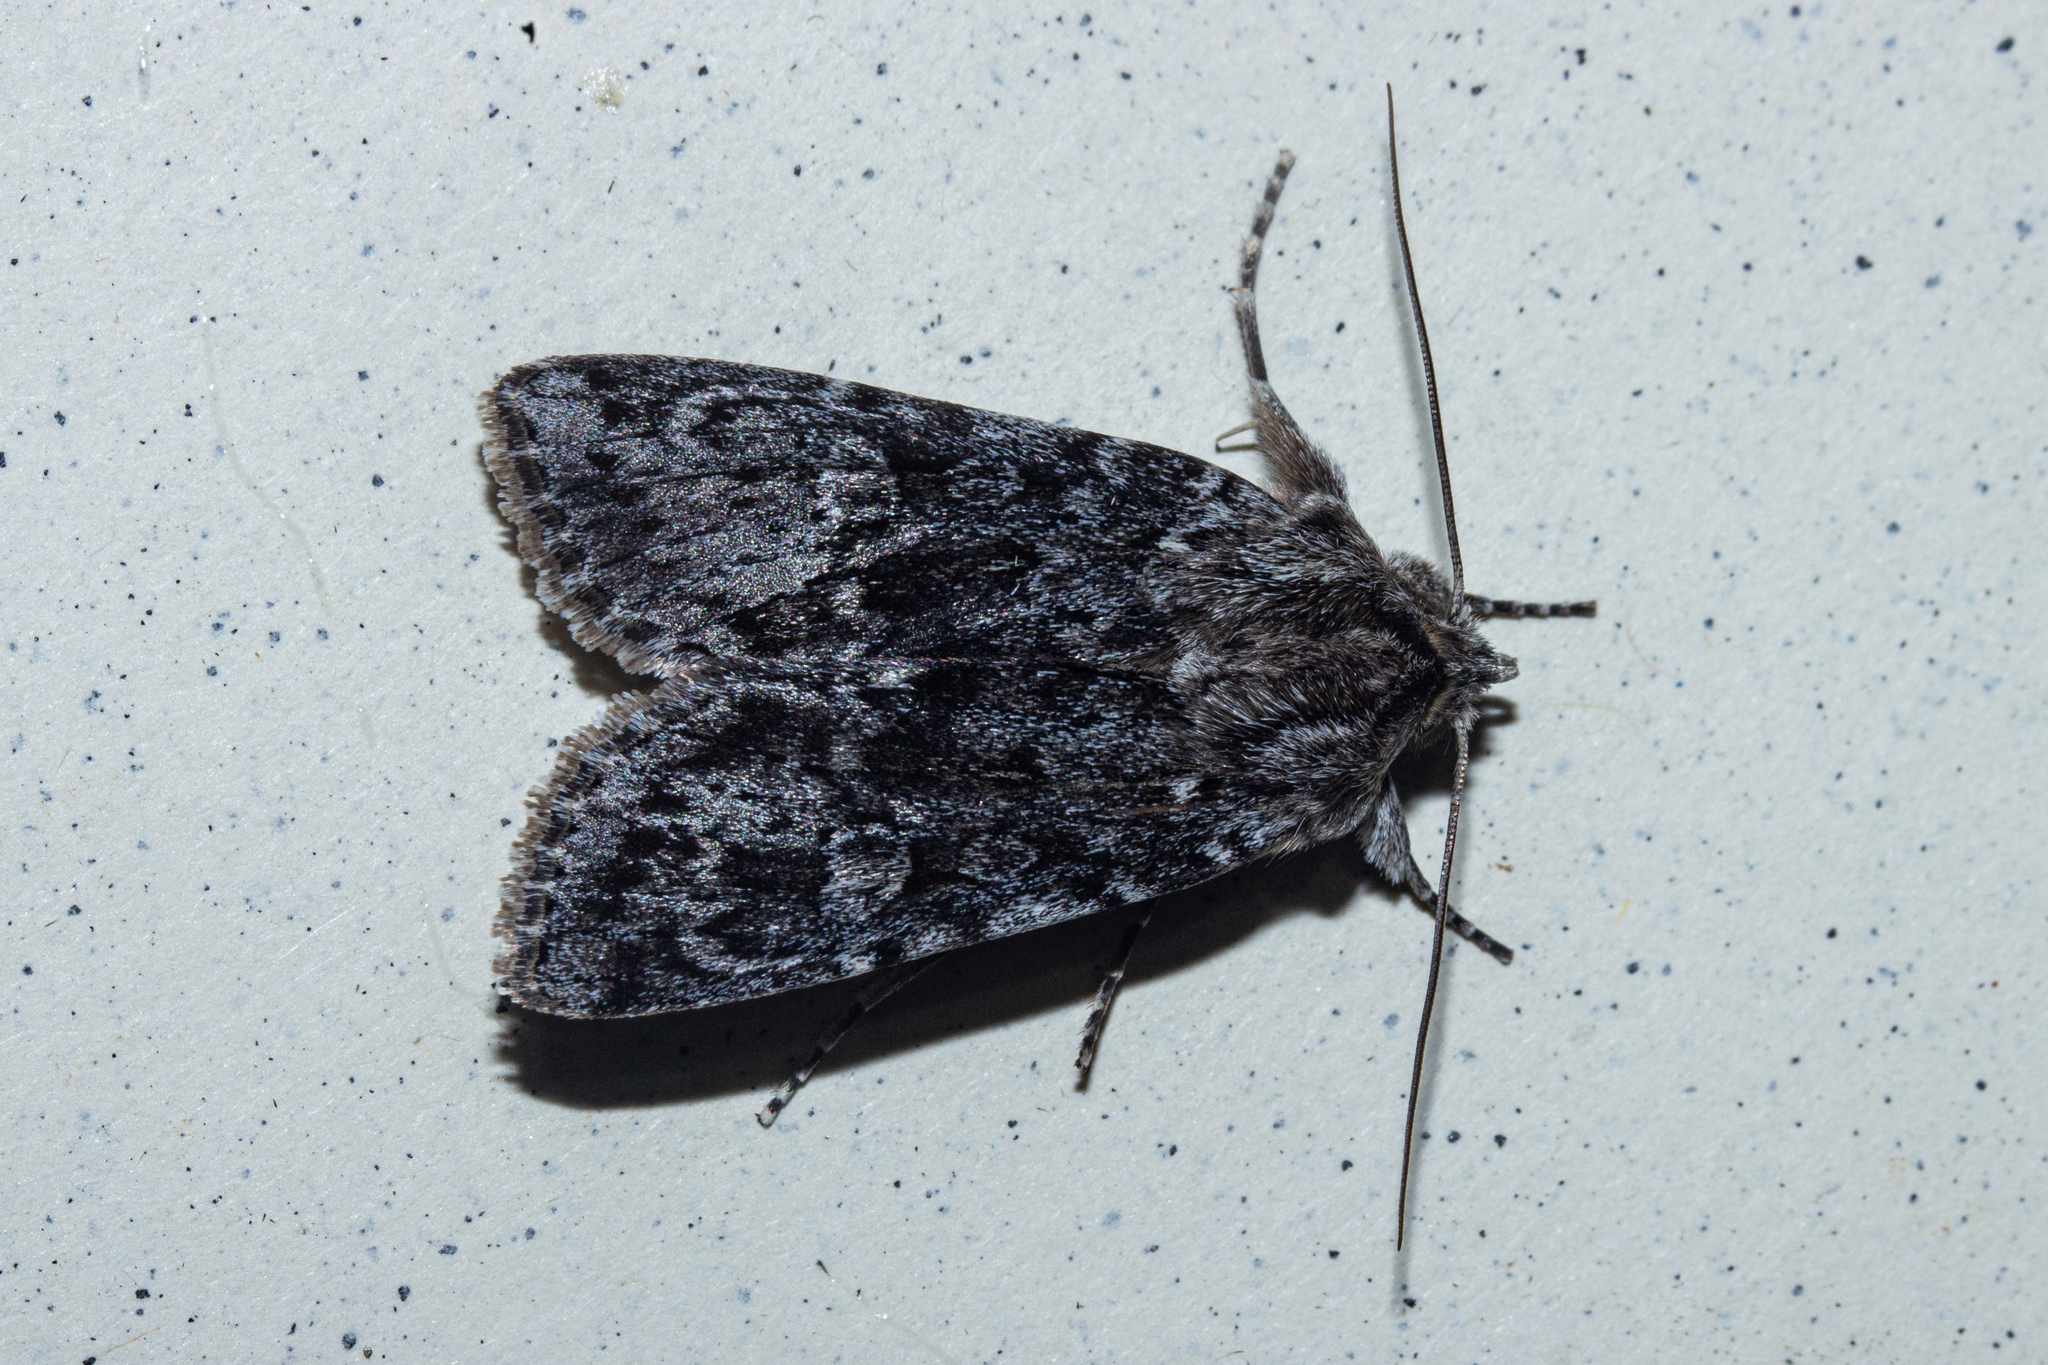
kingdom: Animalia
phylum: Arthropoda
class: Insecta
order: Lepidoptera
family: Noctuidae
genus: Physetica
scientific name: Physetica
